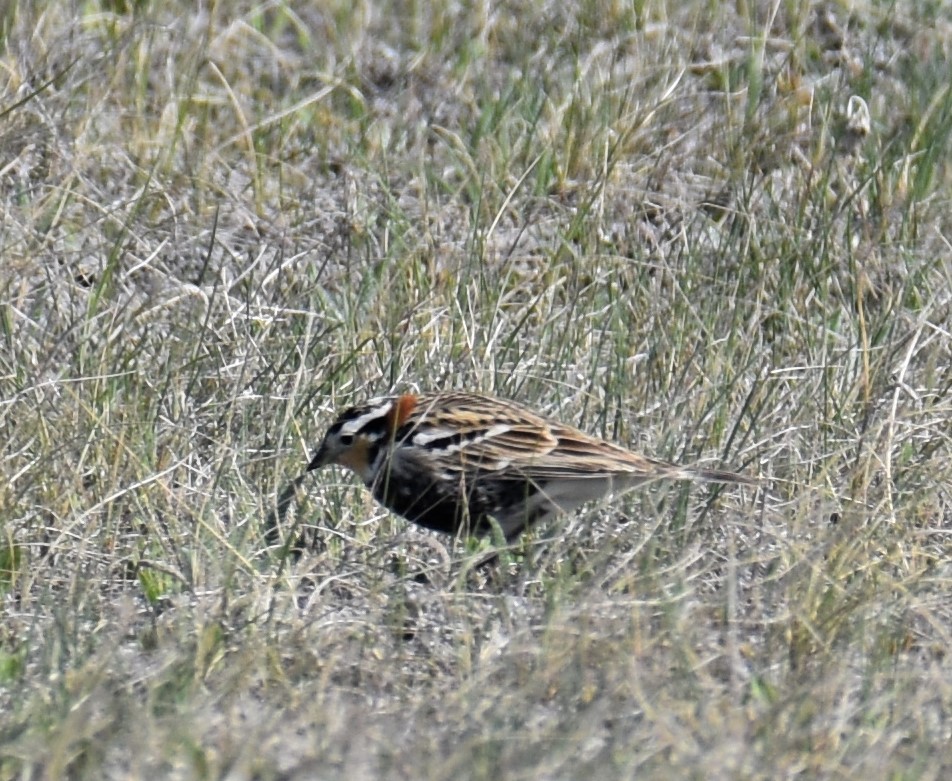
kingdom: Animalia
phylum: Chordata
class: Aves
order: Passeriformes
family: Calcariidae
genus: Calcarius
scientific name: Calcarius ornatus
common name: Chestnut-collared longspur
